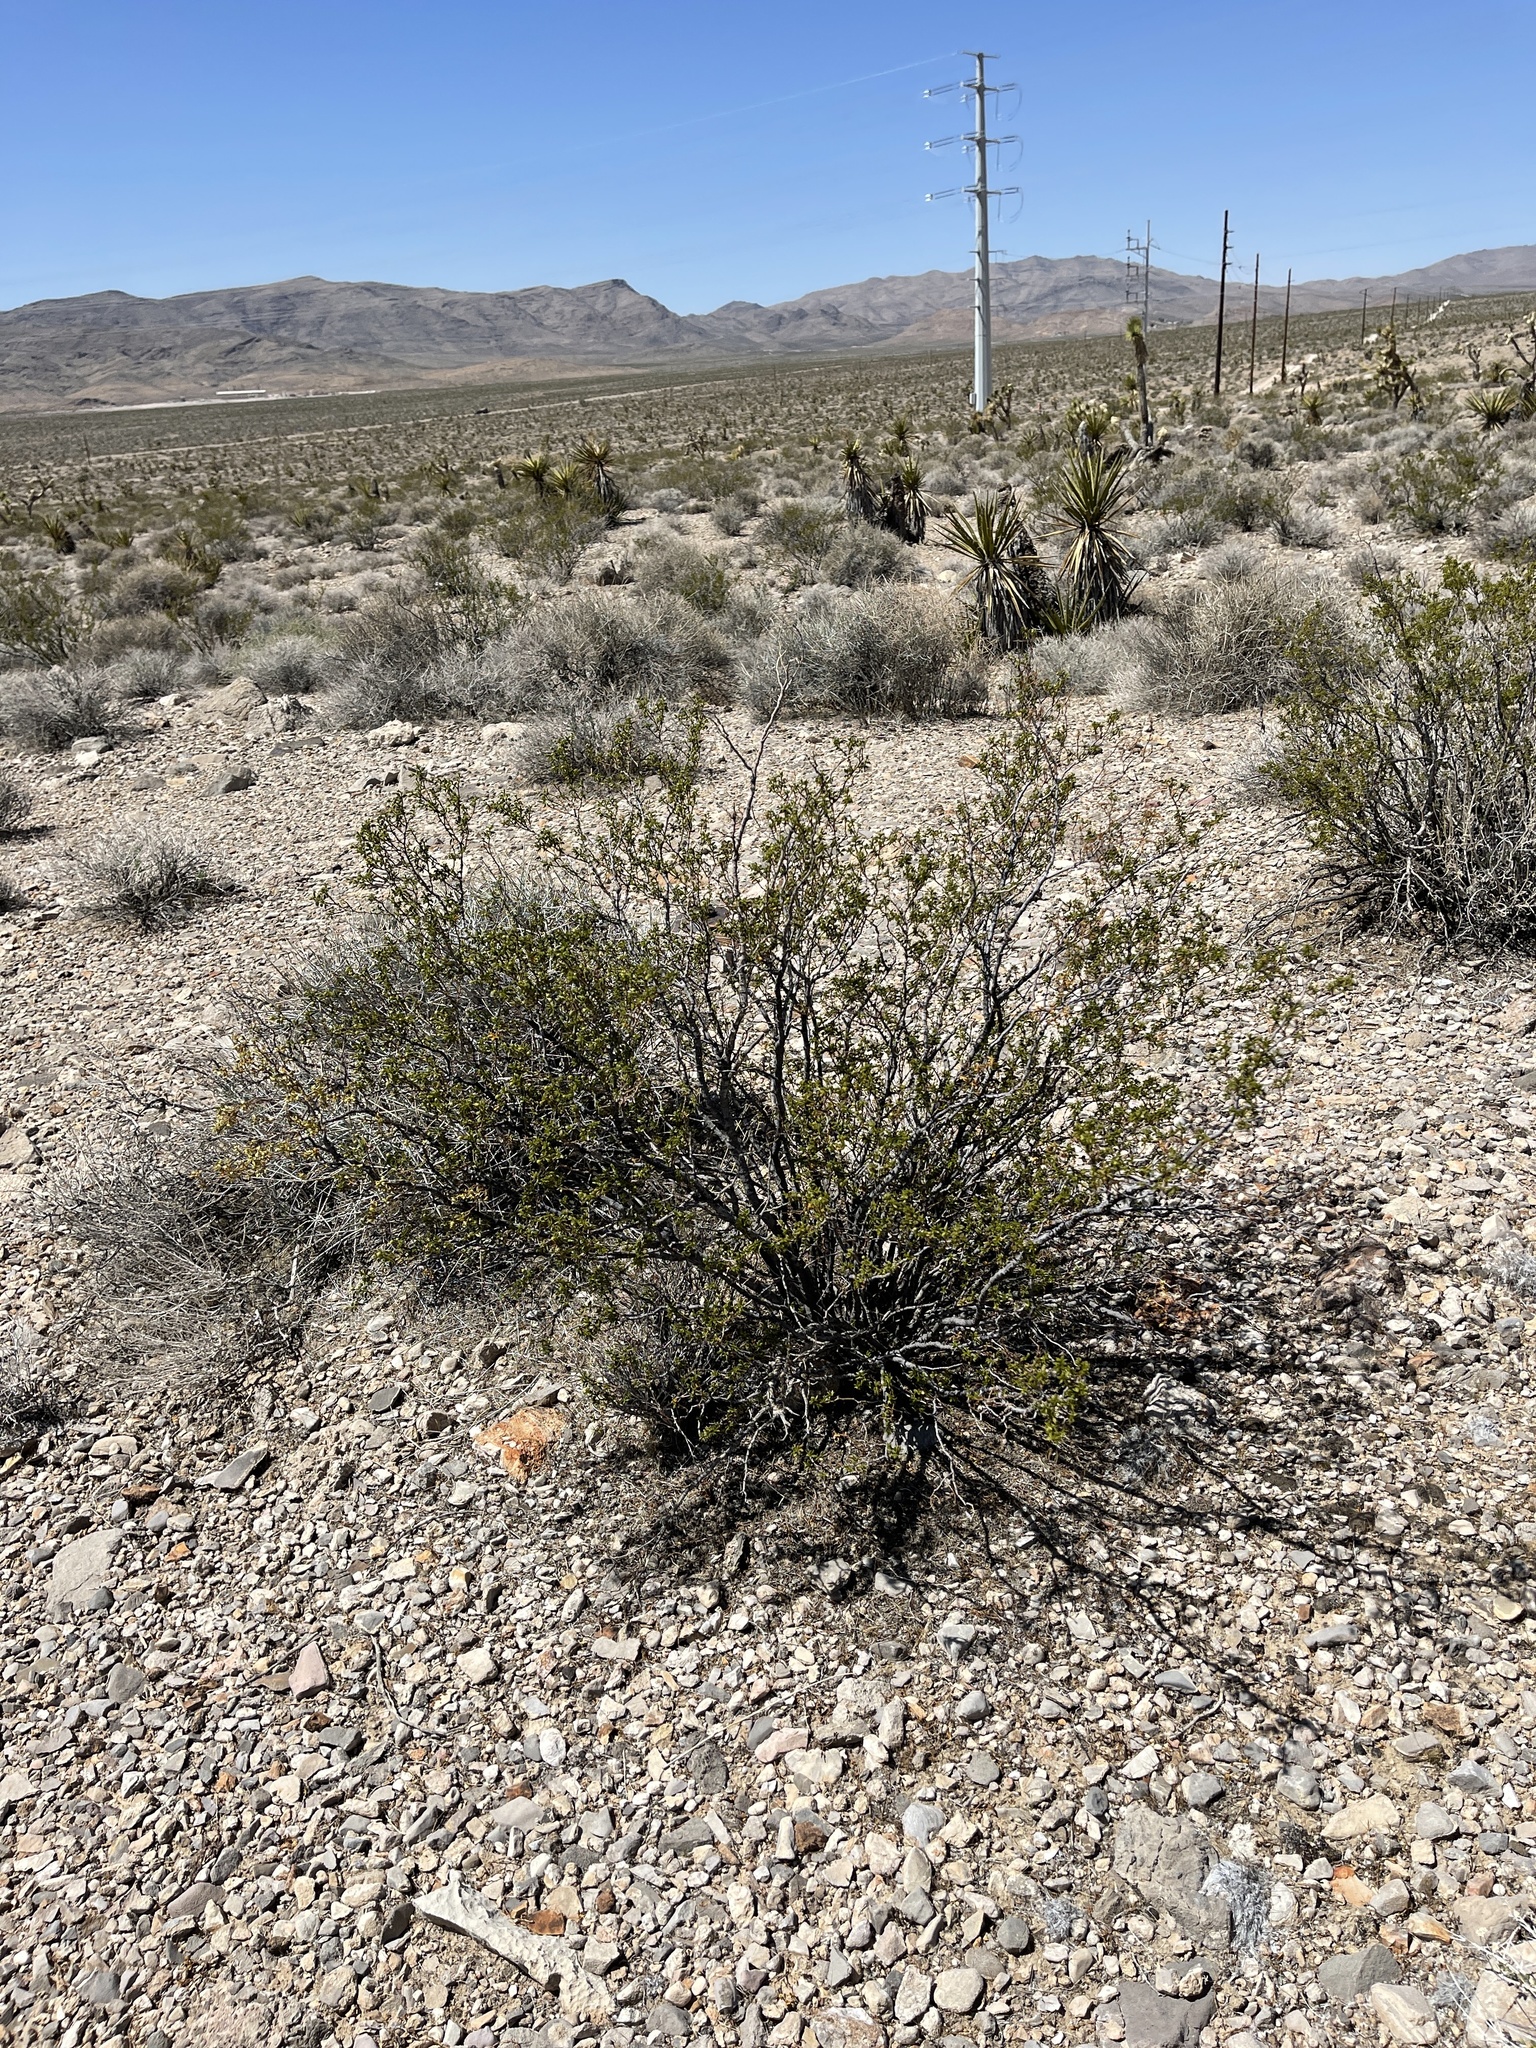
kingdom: Plantae
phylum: Tracheophyta
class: Magnoliopsida
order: Zygophyllales
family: Zygophyllaceae
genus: Larrea
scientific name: Larrea tridentata
